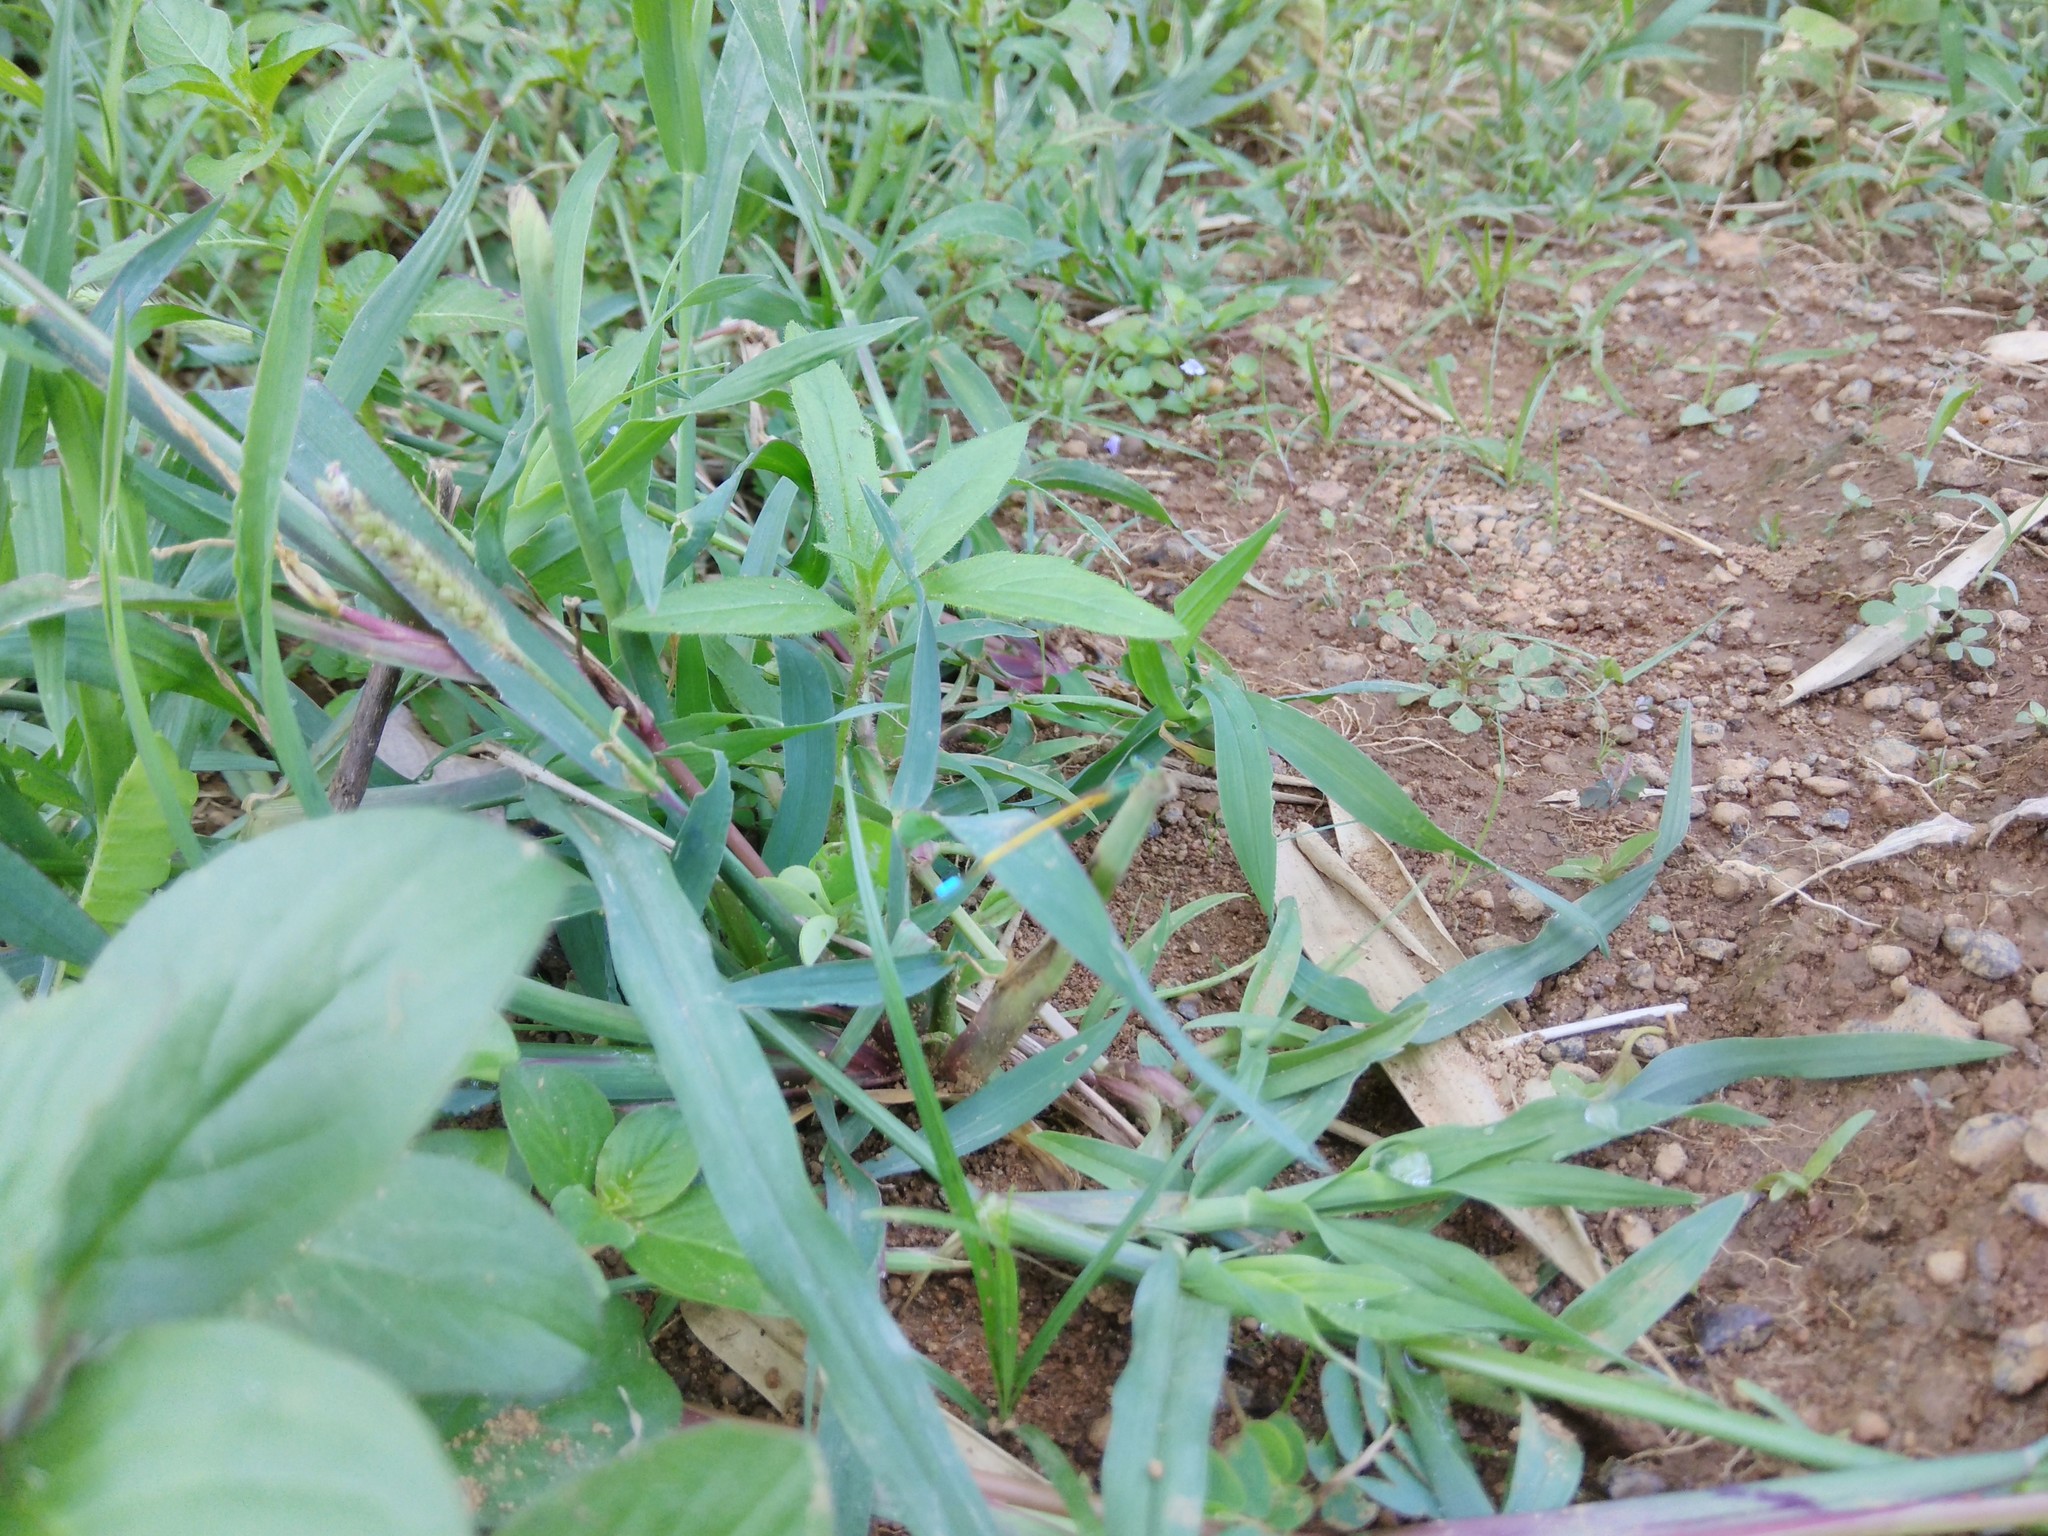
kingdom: Animalia
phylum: Arthropoda
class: Insecta
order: Odonata
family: Coenagrionidae
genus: Ischnura
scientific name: Ischnura rubilio
